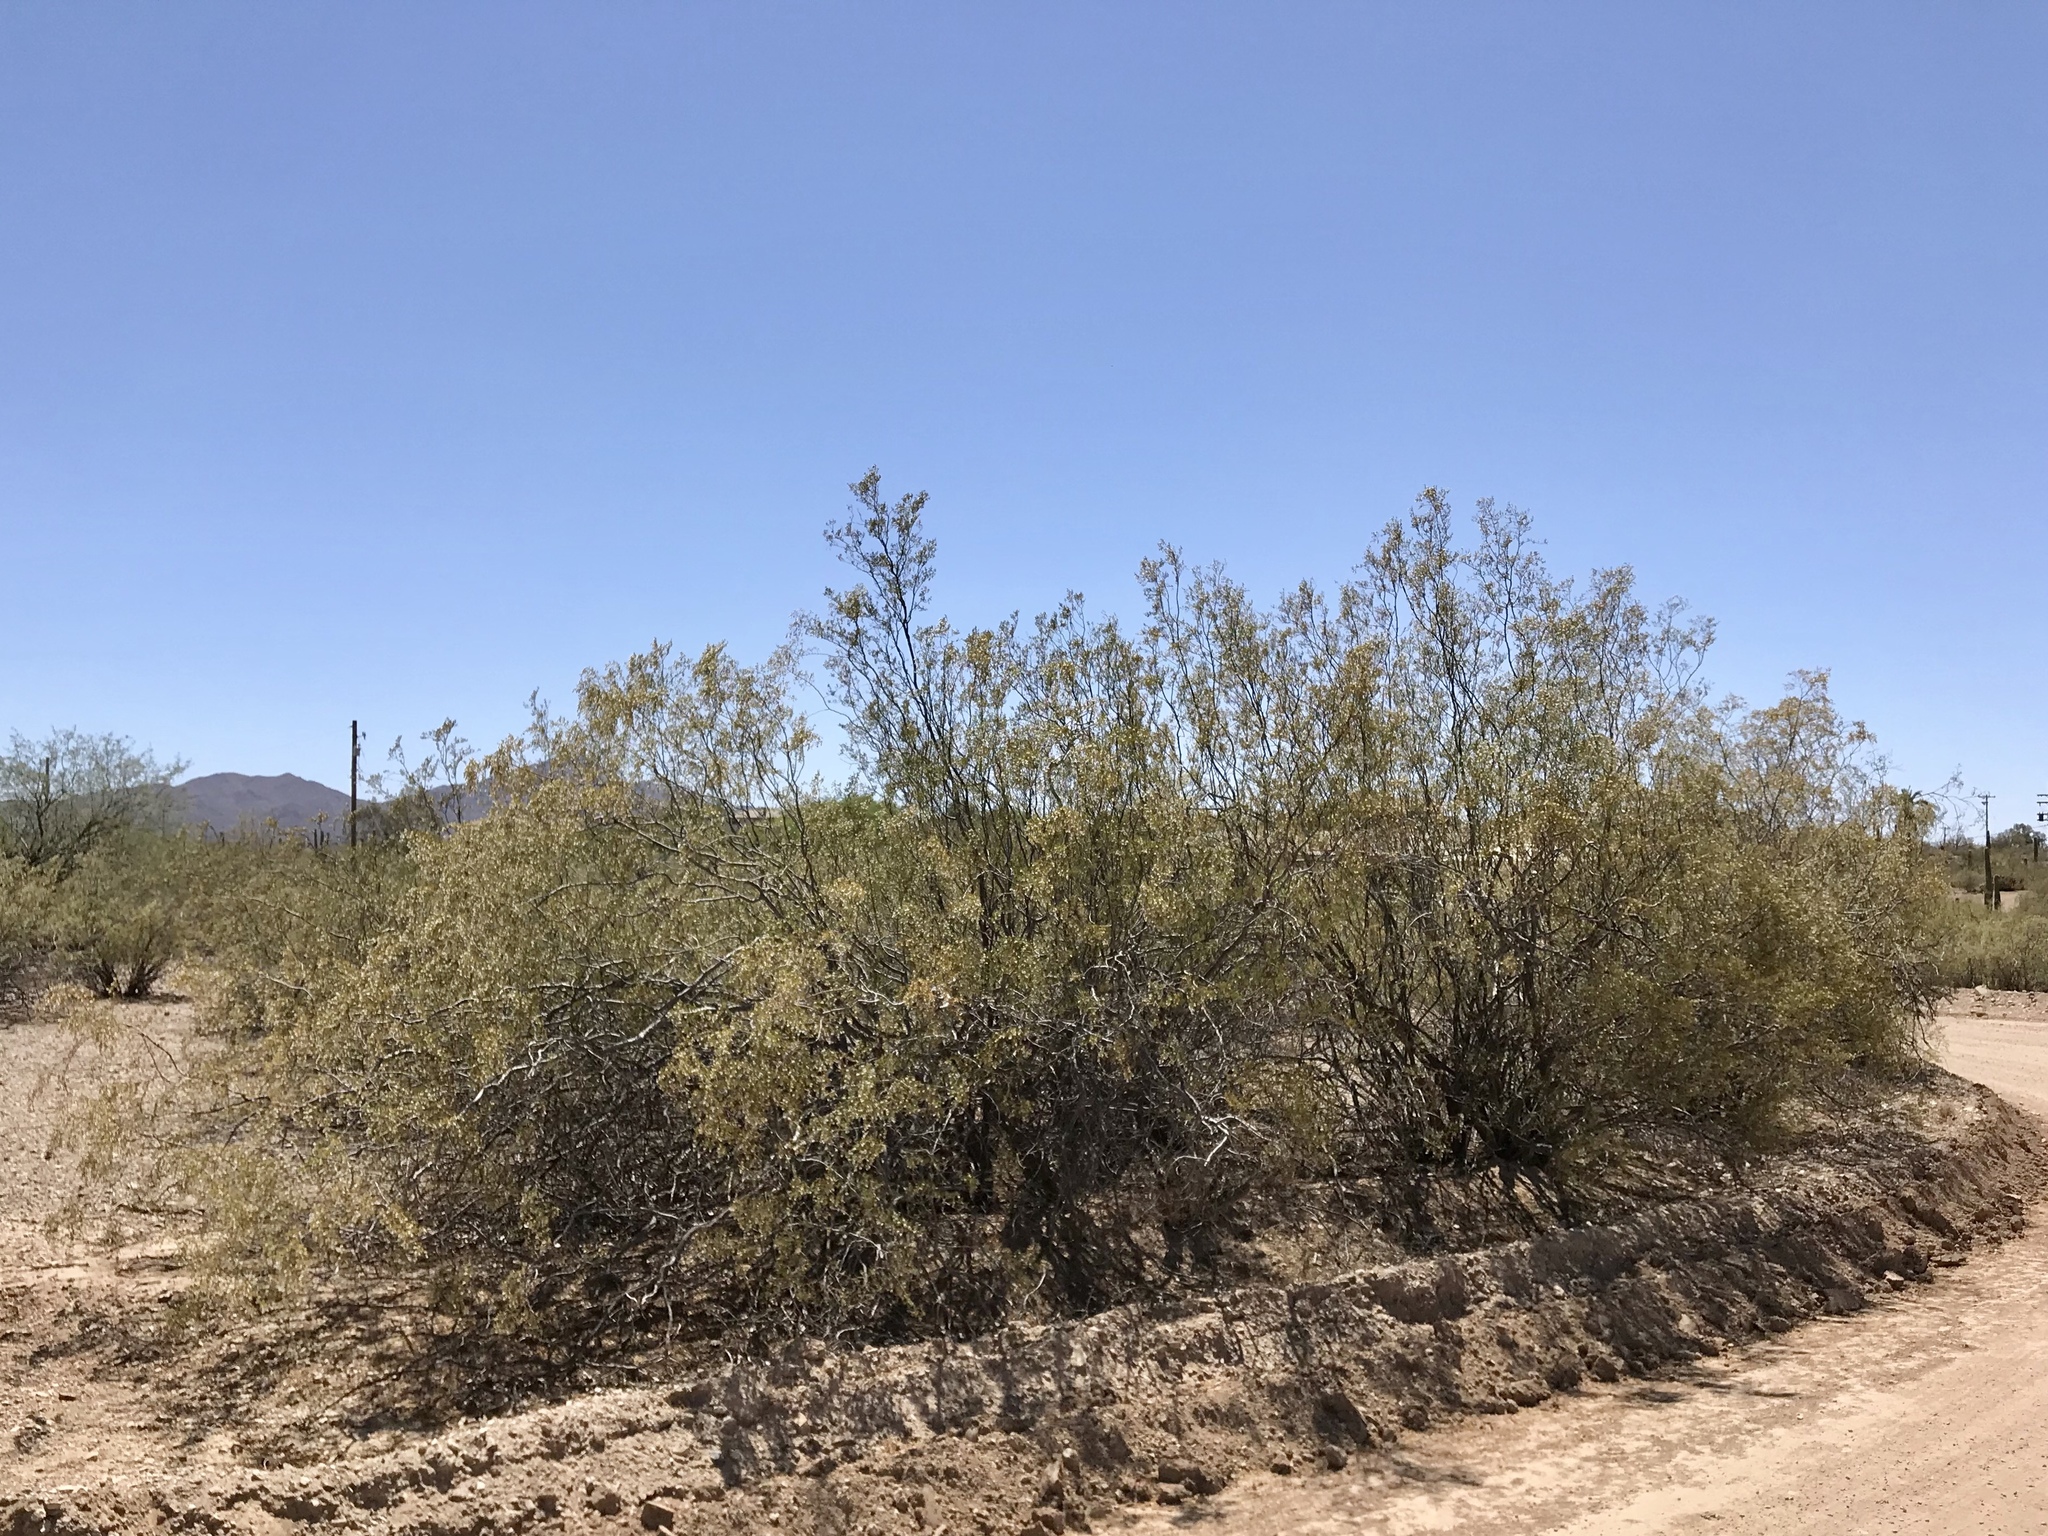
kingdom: Plantae
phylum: Tracheophyta
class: Magnoliopsida
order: Zygophyllales
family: Zygophyllaceae
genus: Larrea
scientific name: Larrea tridentata
